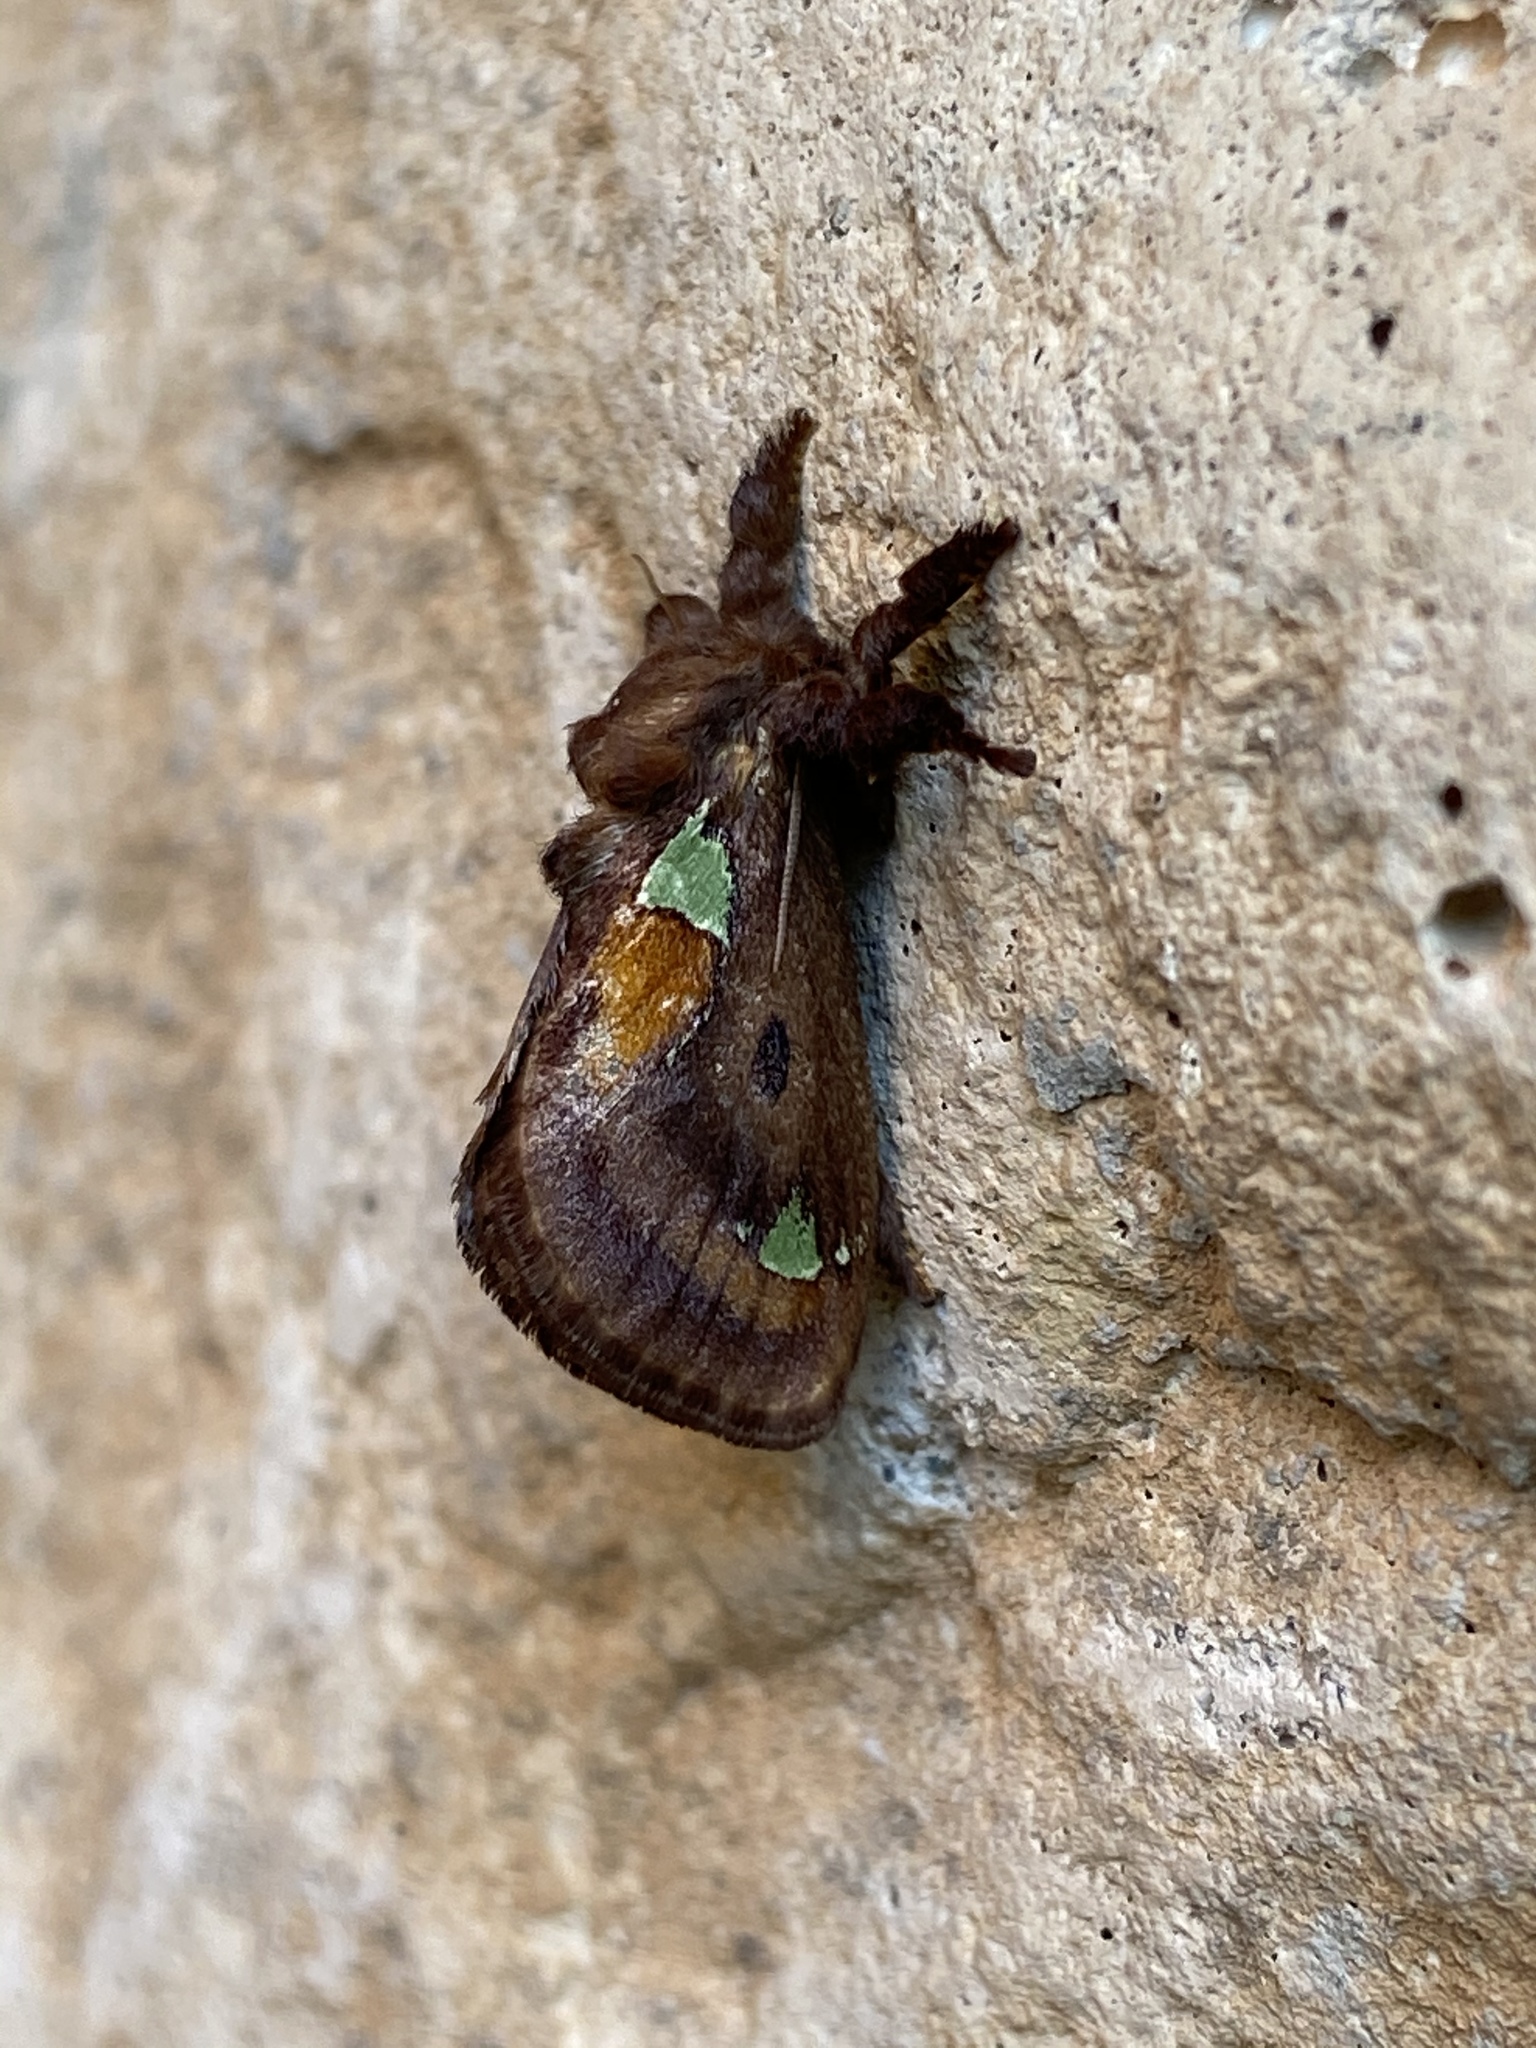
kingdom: Animalia
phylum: Arthropoda
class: Insecta
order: Lepidoptera
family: Limacodidae
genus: Euclea
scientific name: Euclea delphinii
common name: Spiny oak-slug moth
